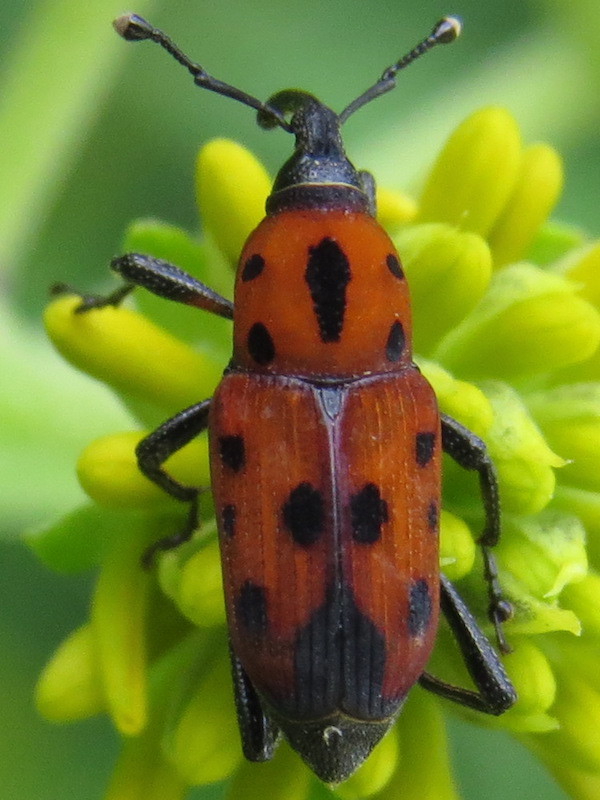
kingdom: Animalia
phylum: Arthropoda
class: Insecta
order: Coleoptera
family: Dryophthoridae
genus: Rhodobaenus
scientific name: Rhodobaenus quinquepunctatus
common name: Cocklebur weevil
